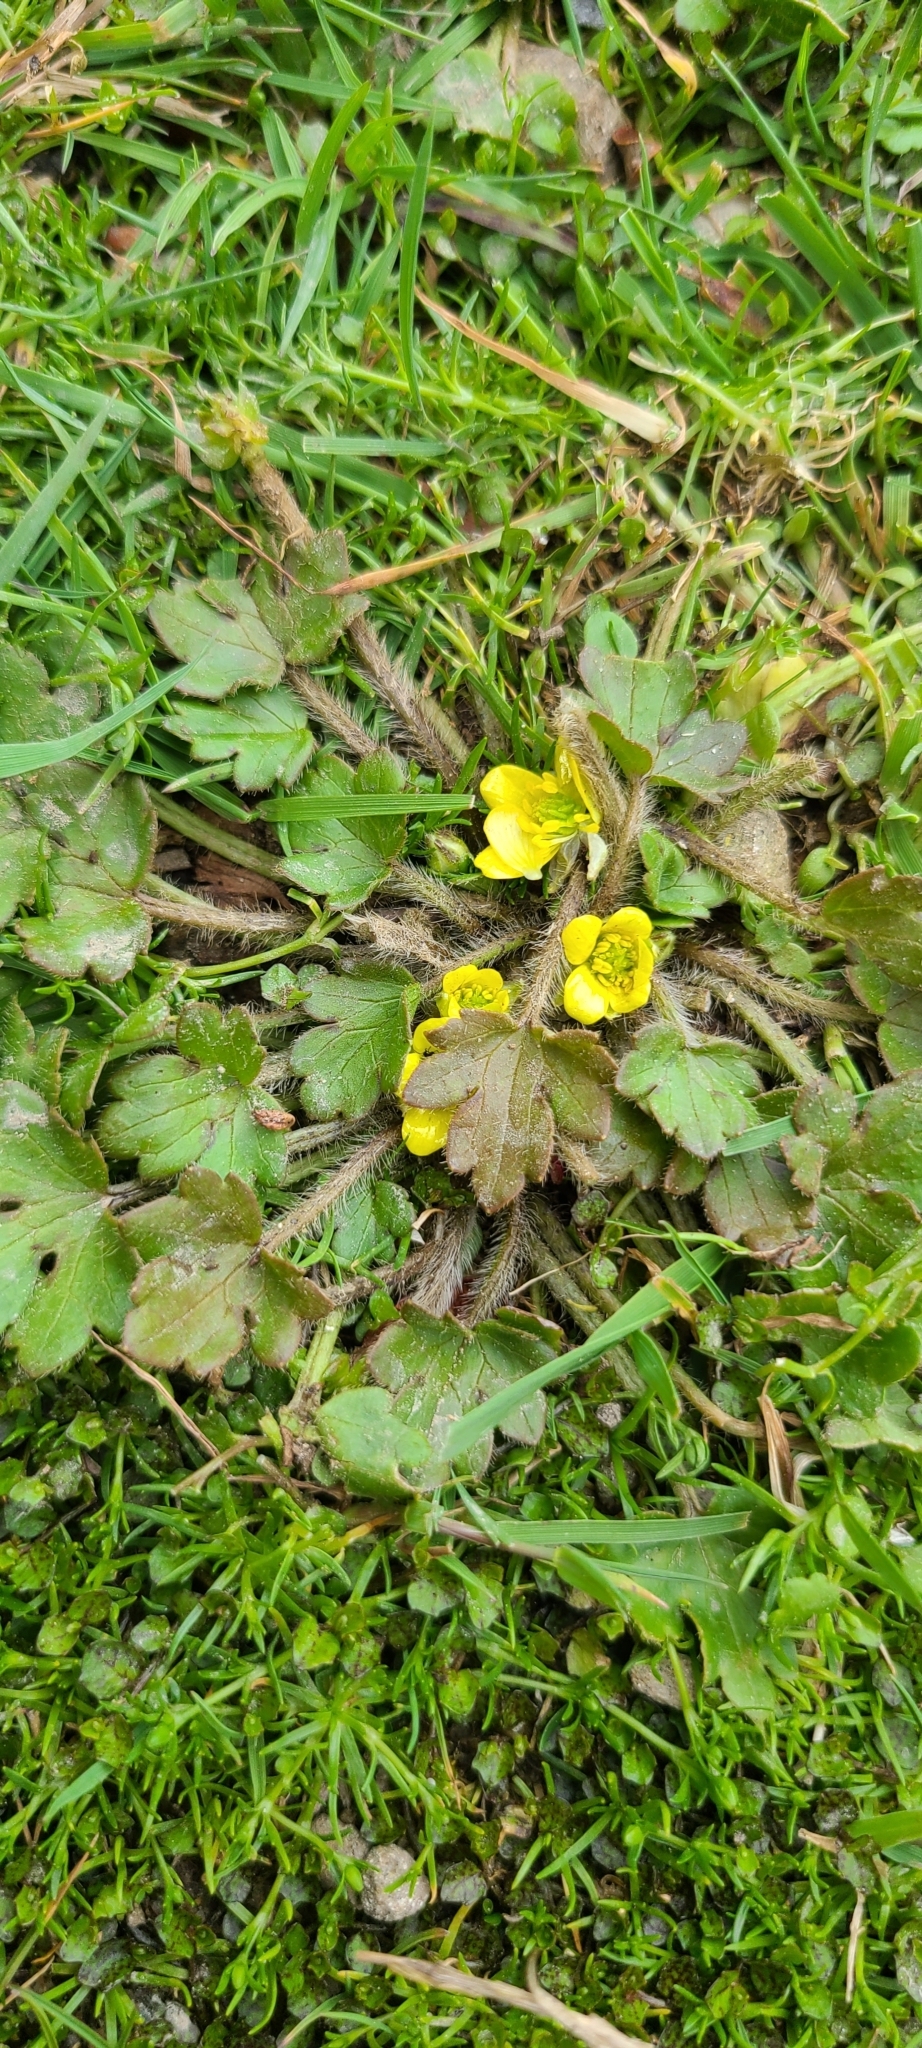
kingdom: Plantae
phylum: Tracheophyta
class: Magnoliopsida
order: Ranunculales
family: Ranunculaceae
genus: Ranunculus
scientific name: Ranunculus foliosus
